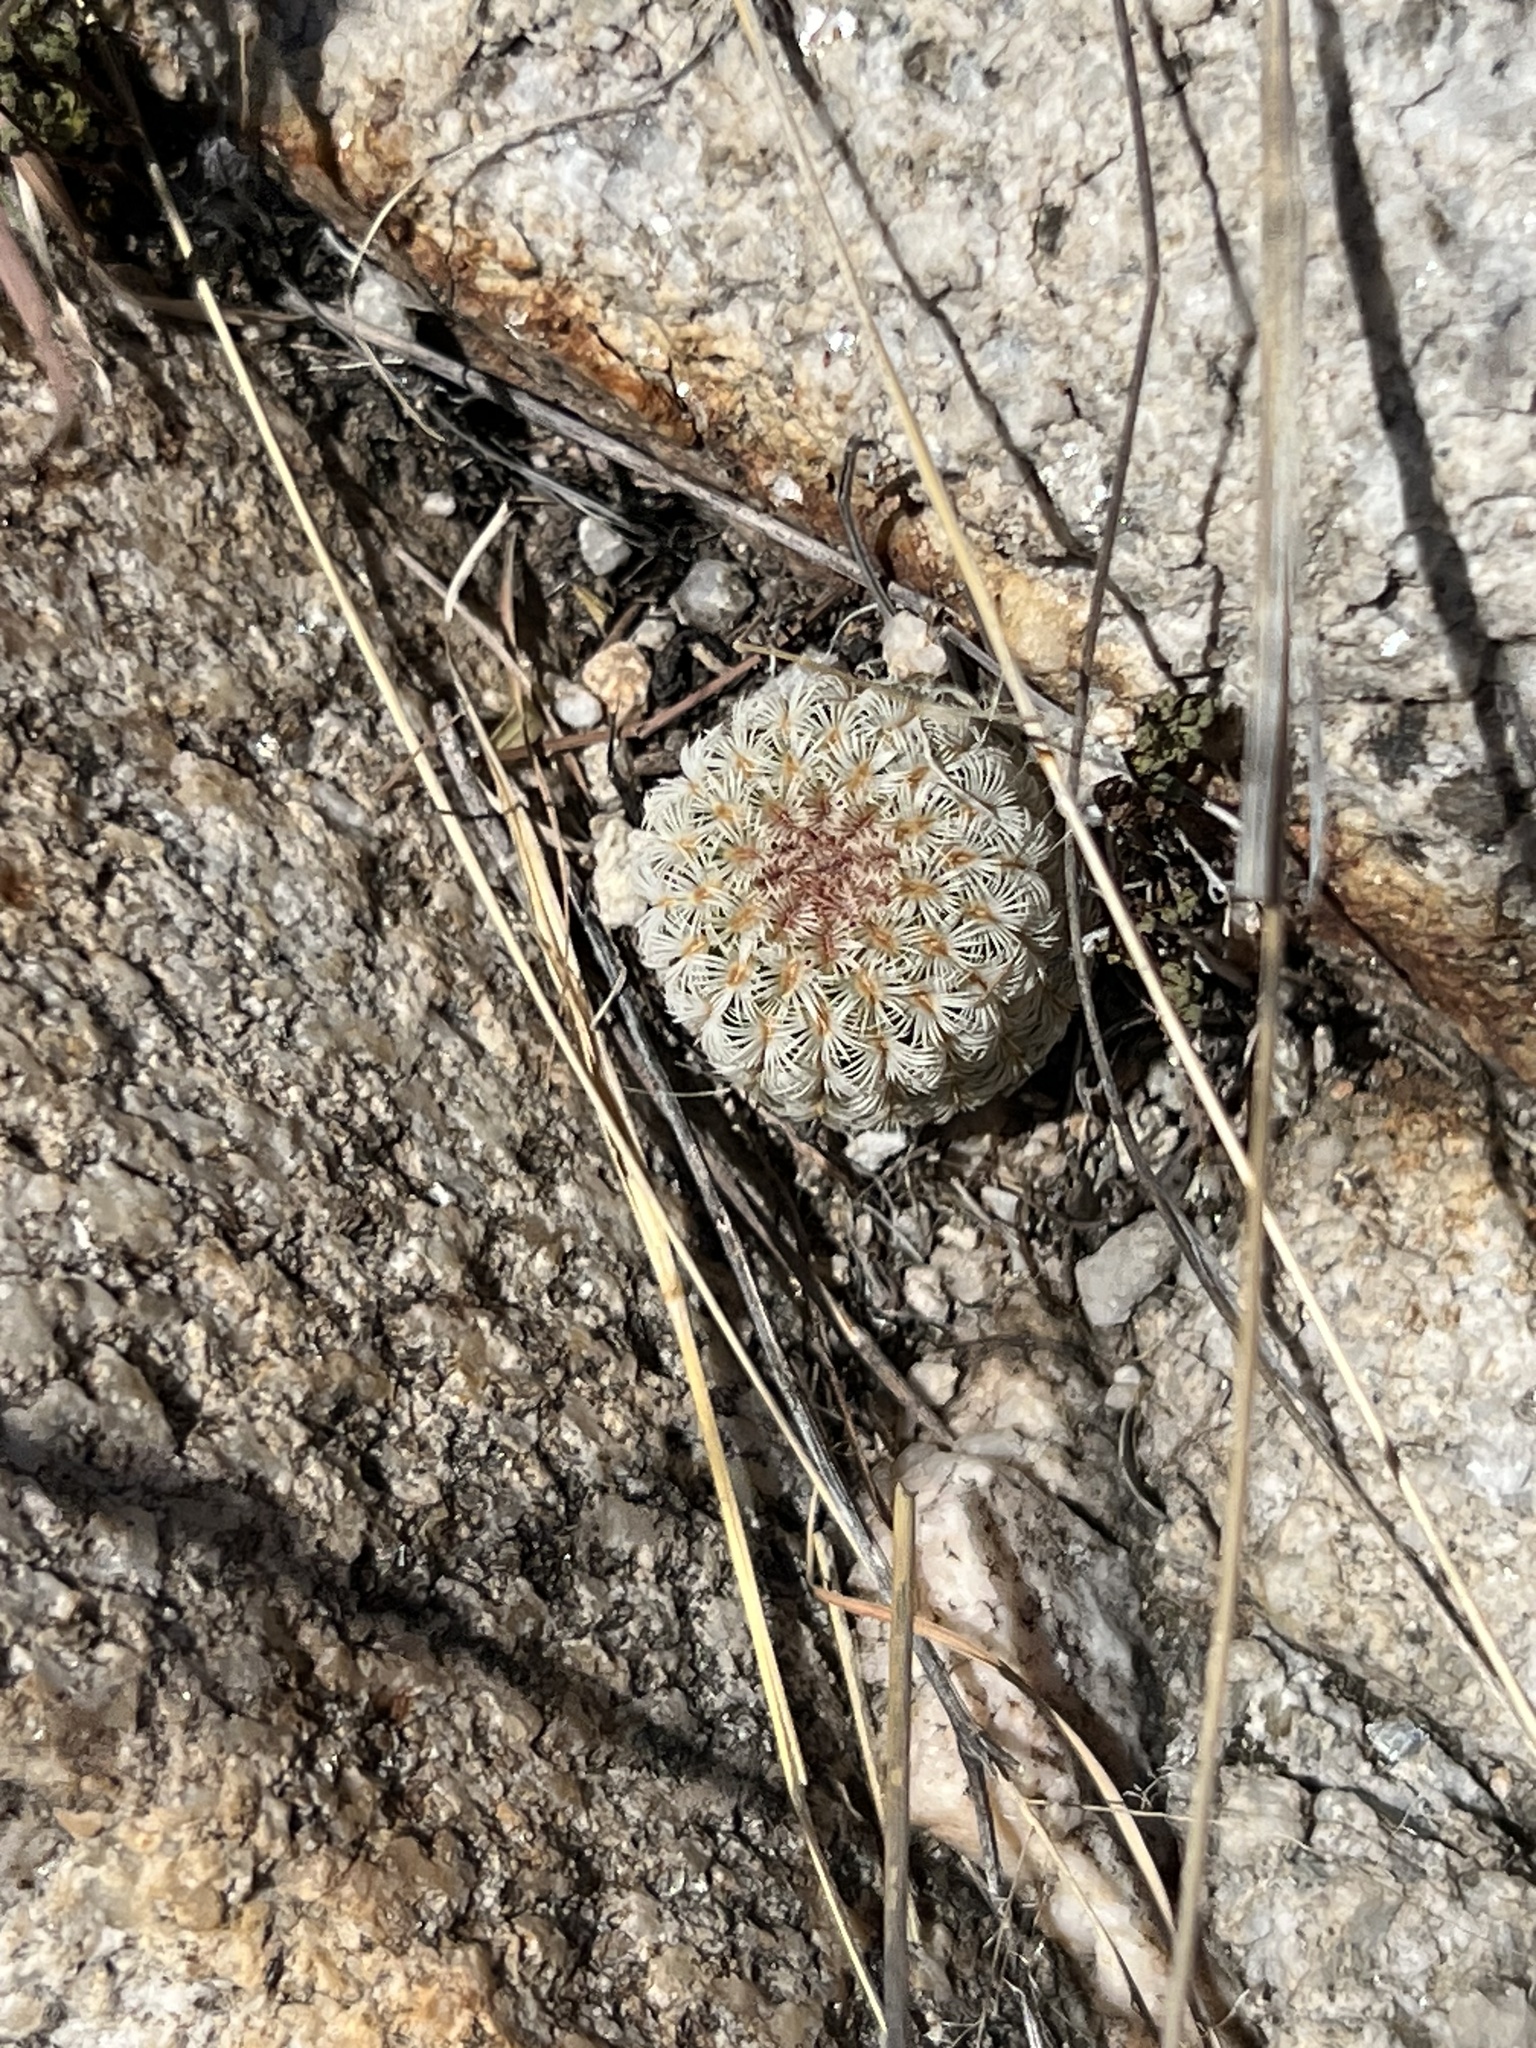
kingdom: Plantae
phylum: Tracheophyta
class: Magnoliopsida
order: Caryophyllales
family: Cactaceae
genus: Echinocereus
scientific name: Echinocereus rigidissimus
